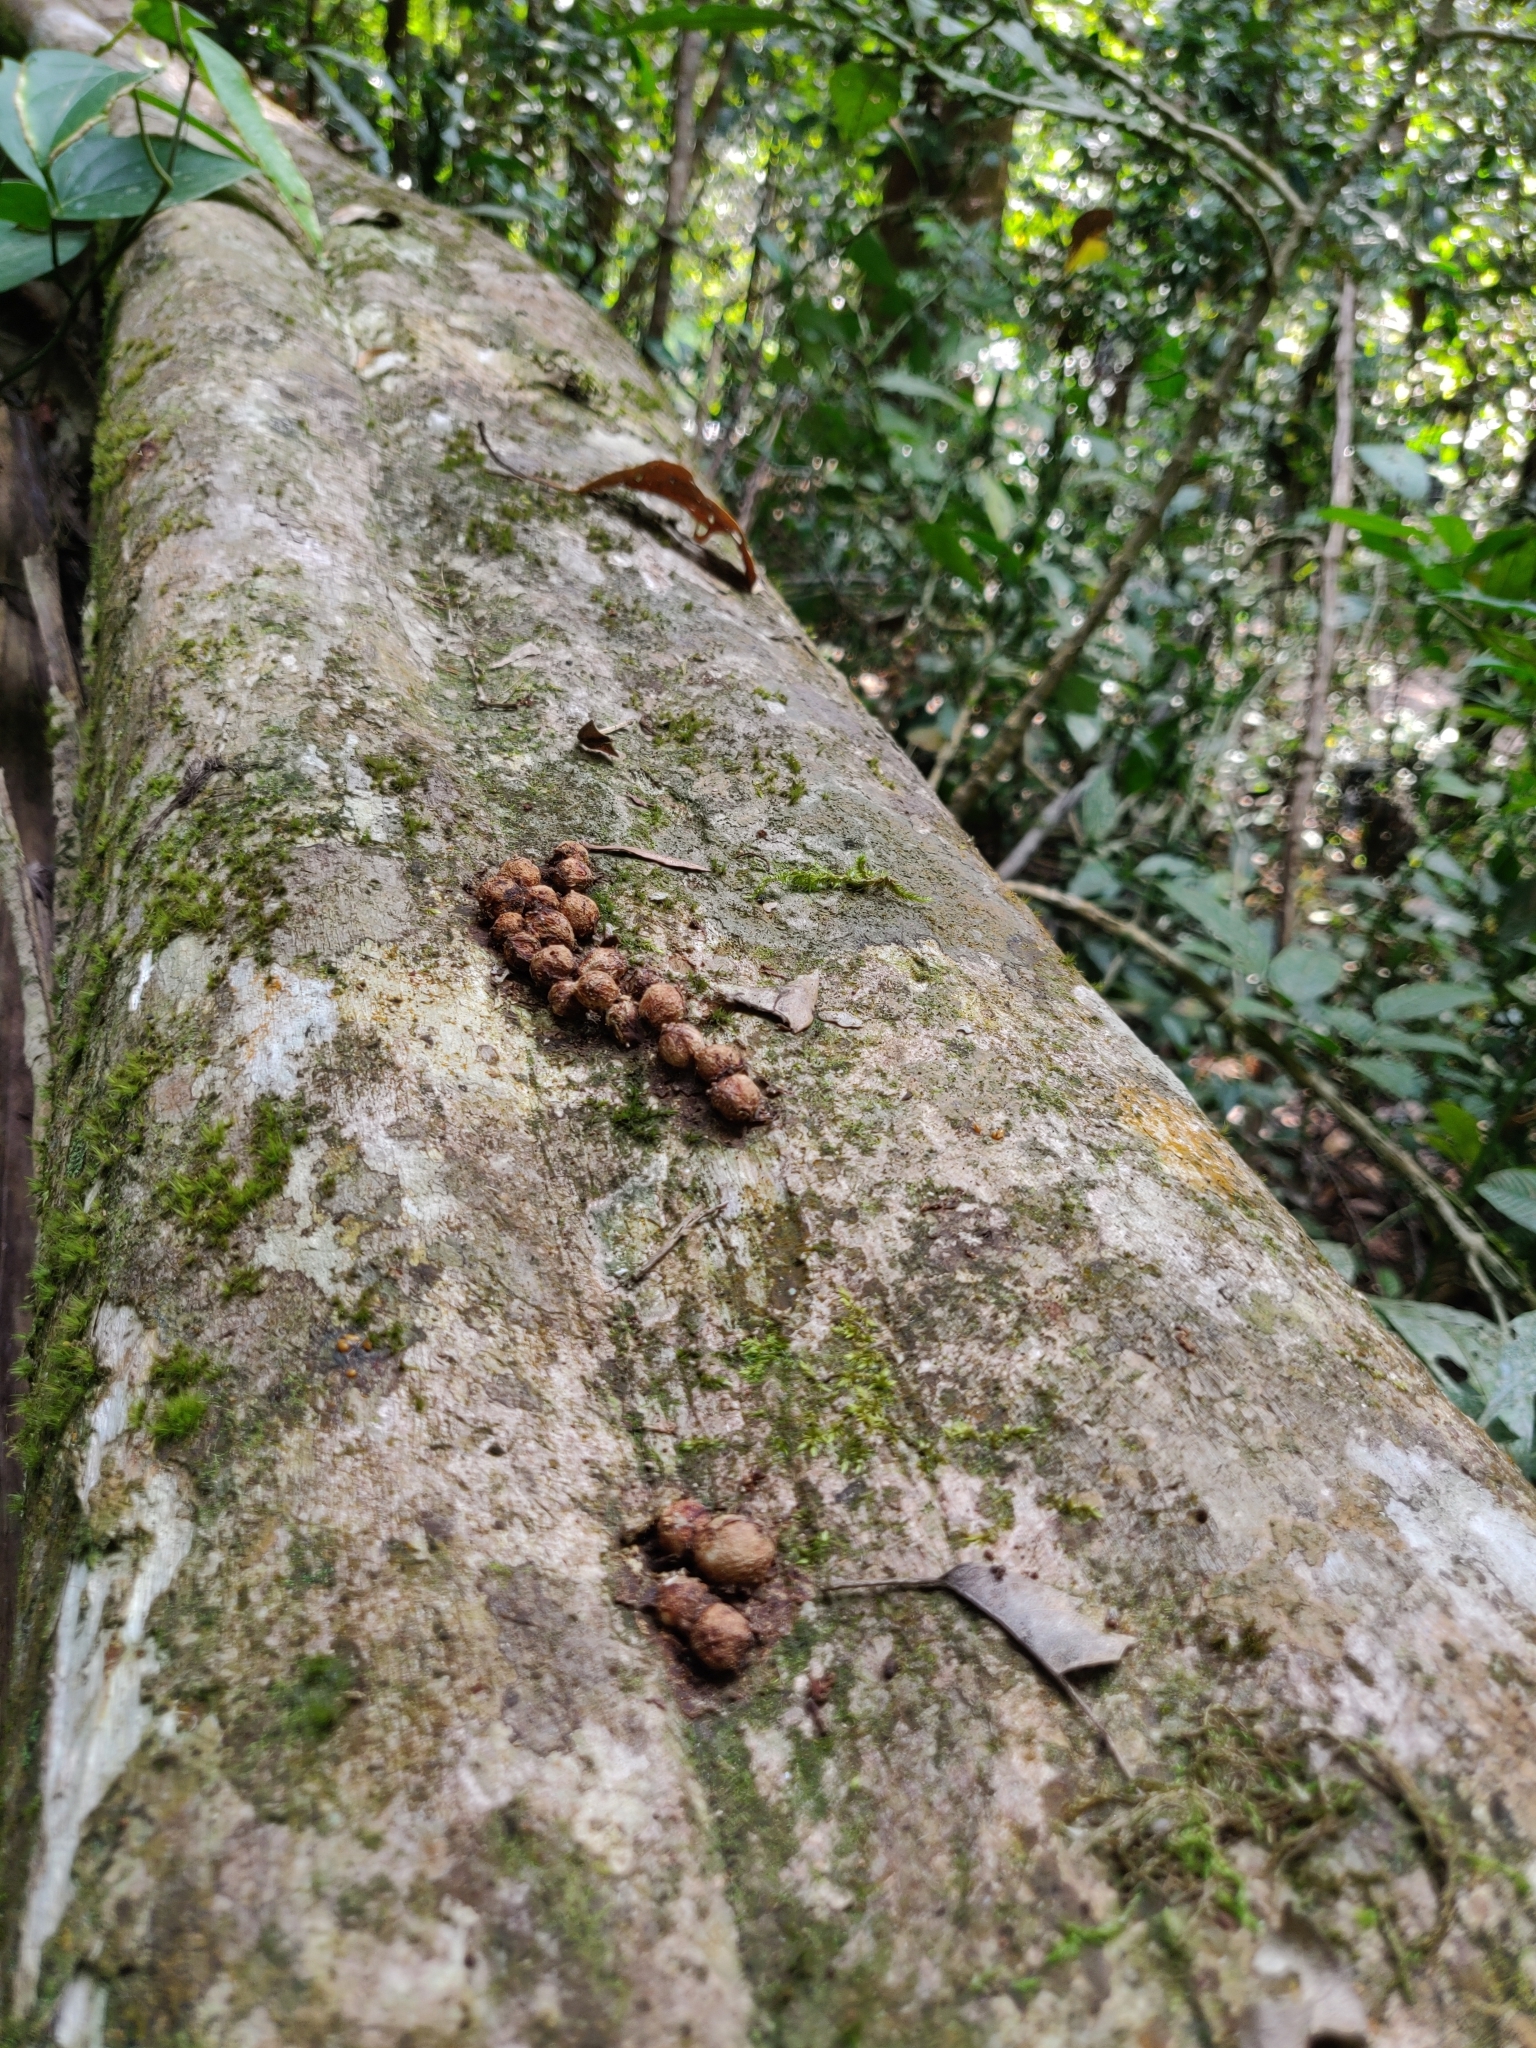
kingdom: Animalia
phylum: Chordata
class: Mammalia
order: Carnivora
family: Viverridae
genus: Paradoxurus
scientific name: Paradoxurus jerdoni
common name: Jerdon's palm civet
